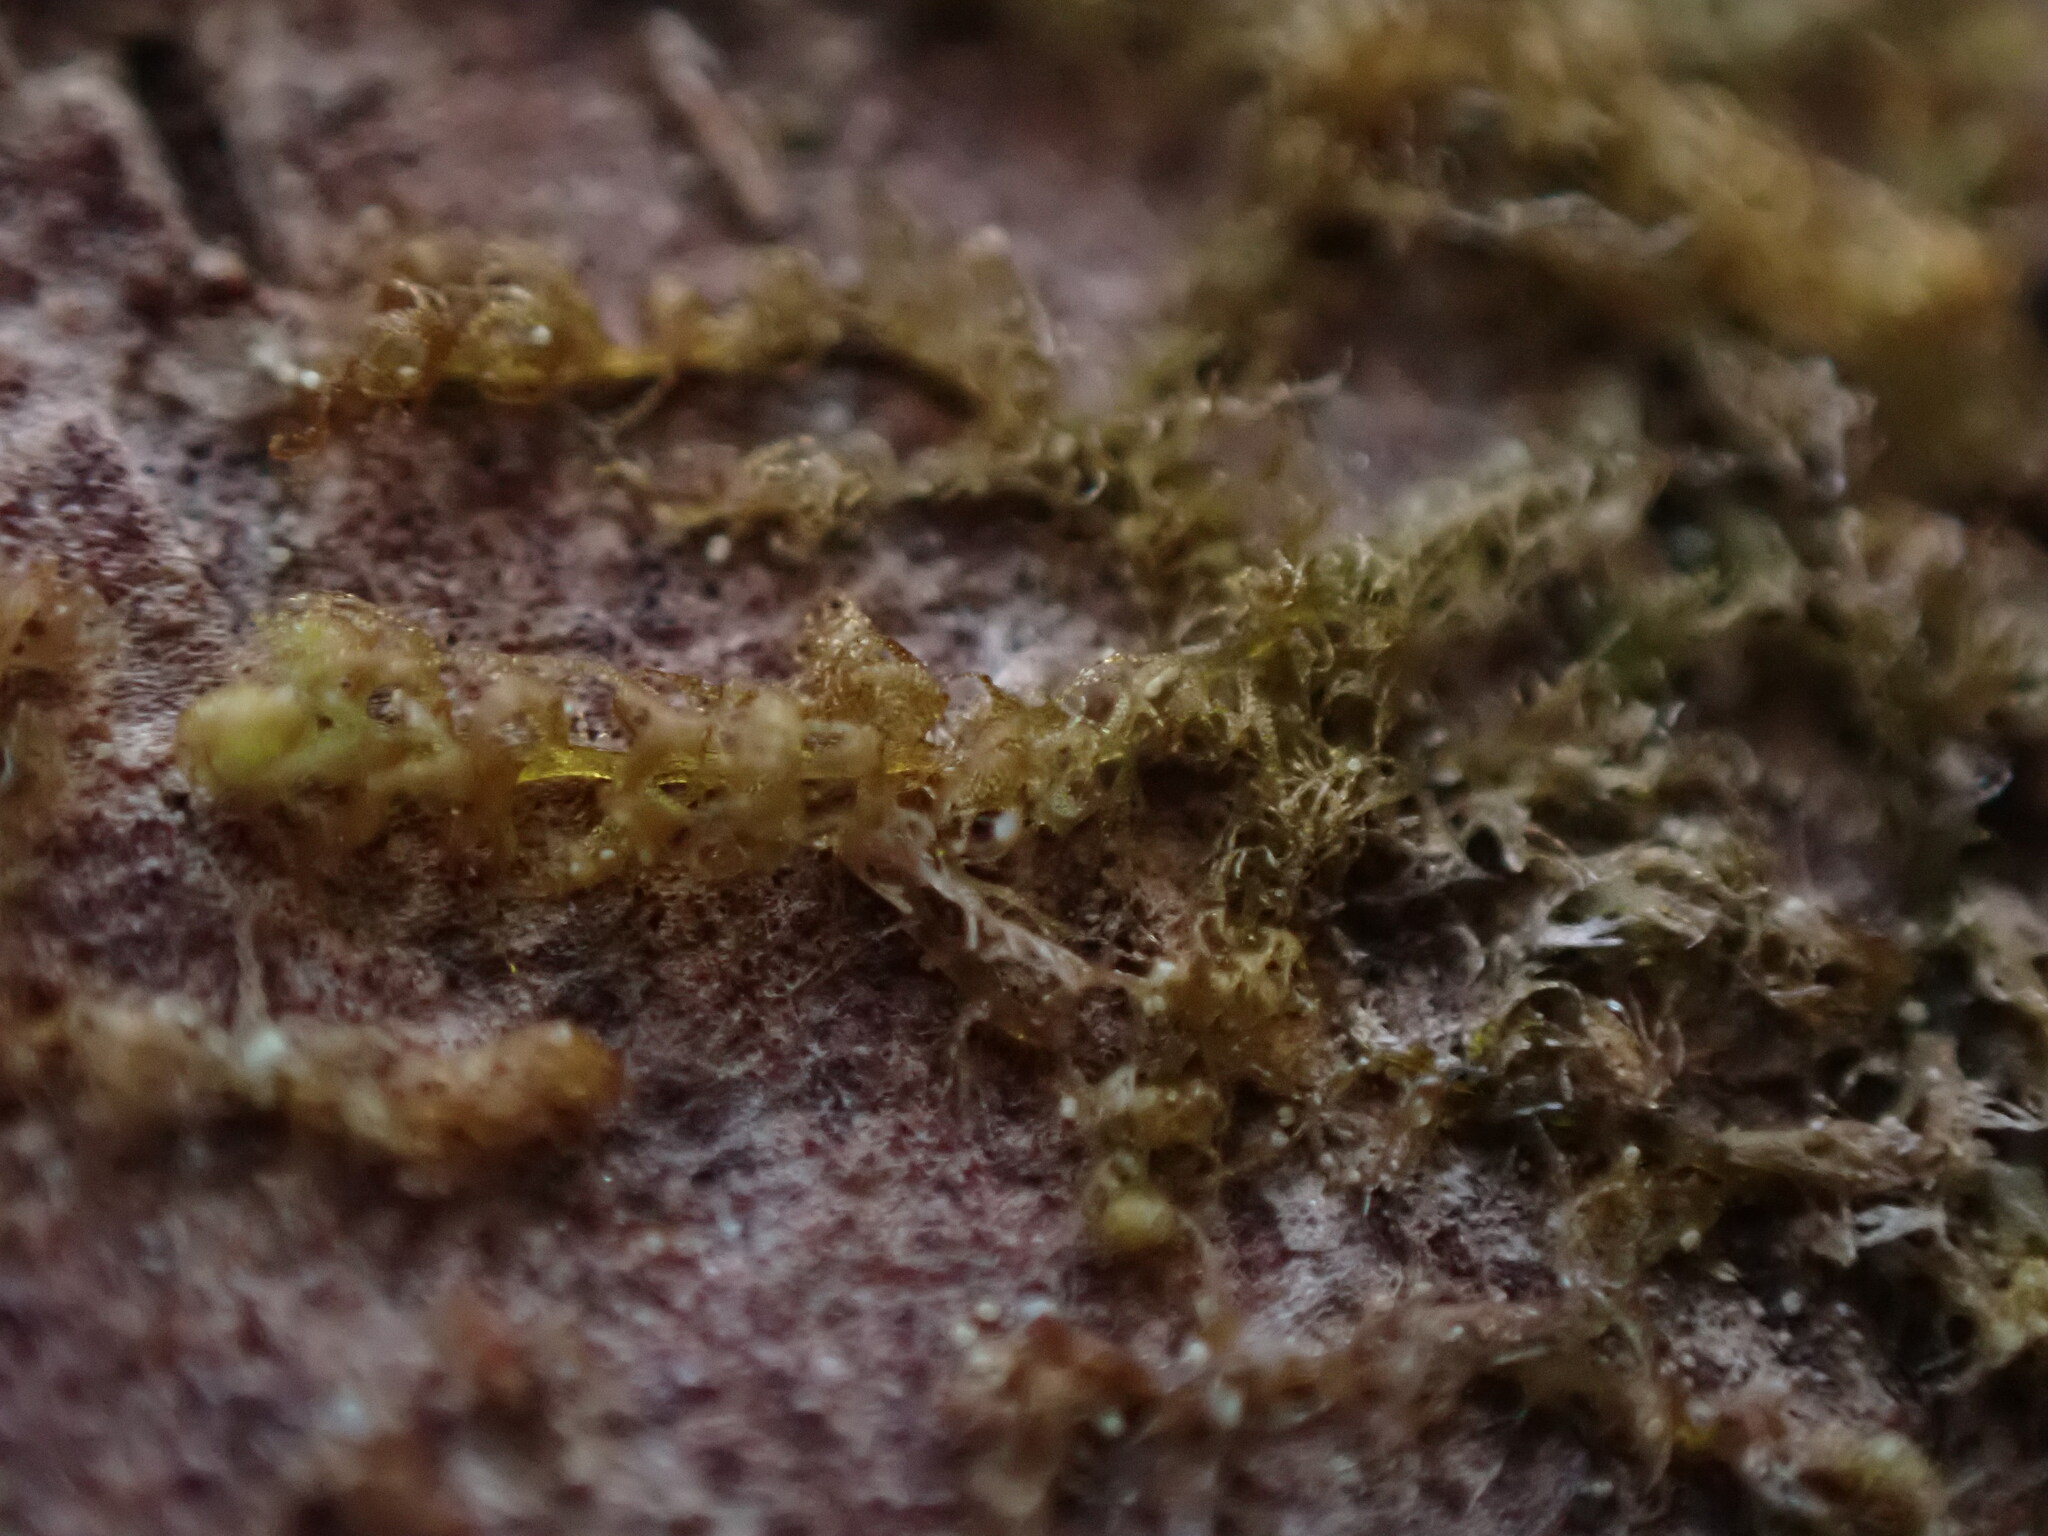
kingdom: Plantae
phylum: Marchantiophyta
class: Jungermanniopsida
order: Ptilidiales
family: Ptilidiaceae
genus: Ptilidium
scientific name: Ptilidium californicum
